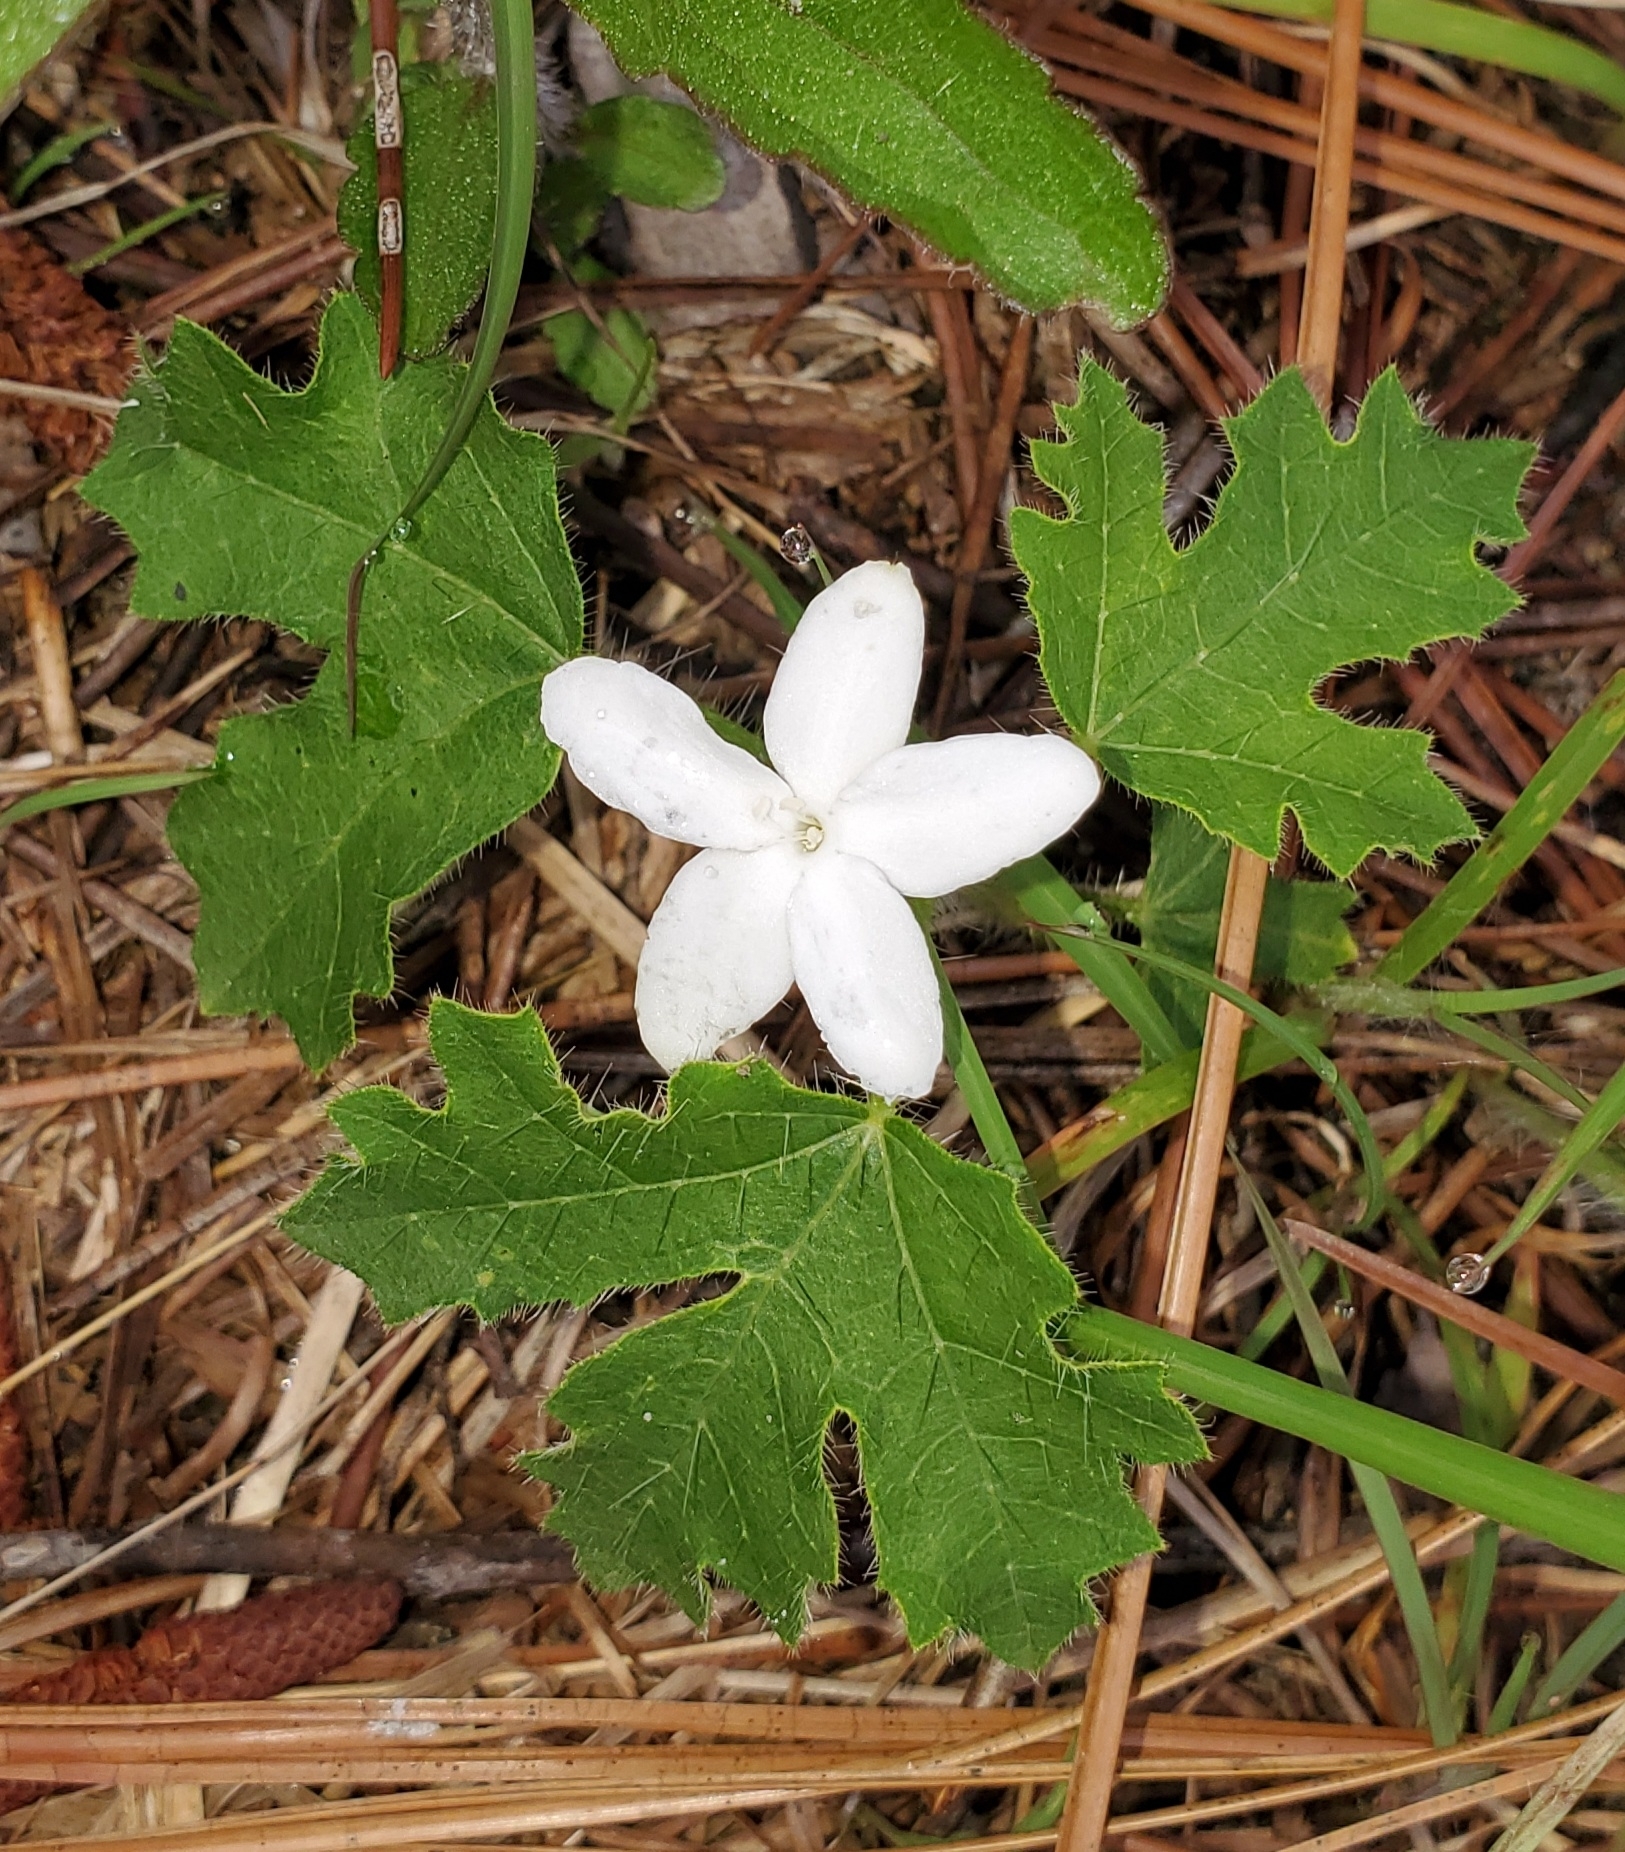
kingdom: Plantae
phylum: Tracheophyta
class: Magnoliopsida
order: Malpighiales
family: Euphorbiaceae
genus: Cnidoscolus
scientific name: Cnidoscolus stimulosus
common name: Bull-nettle
